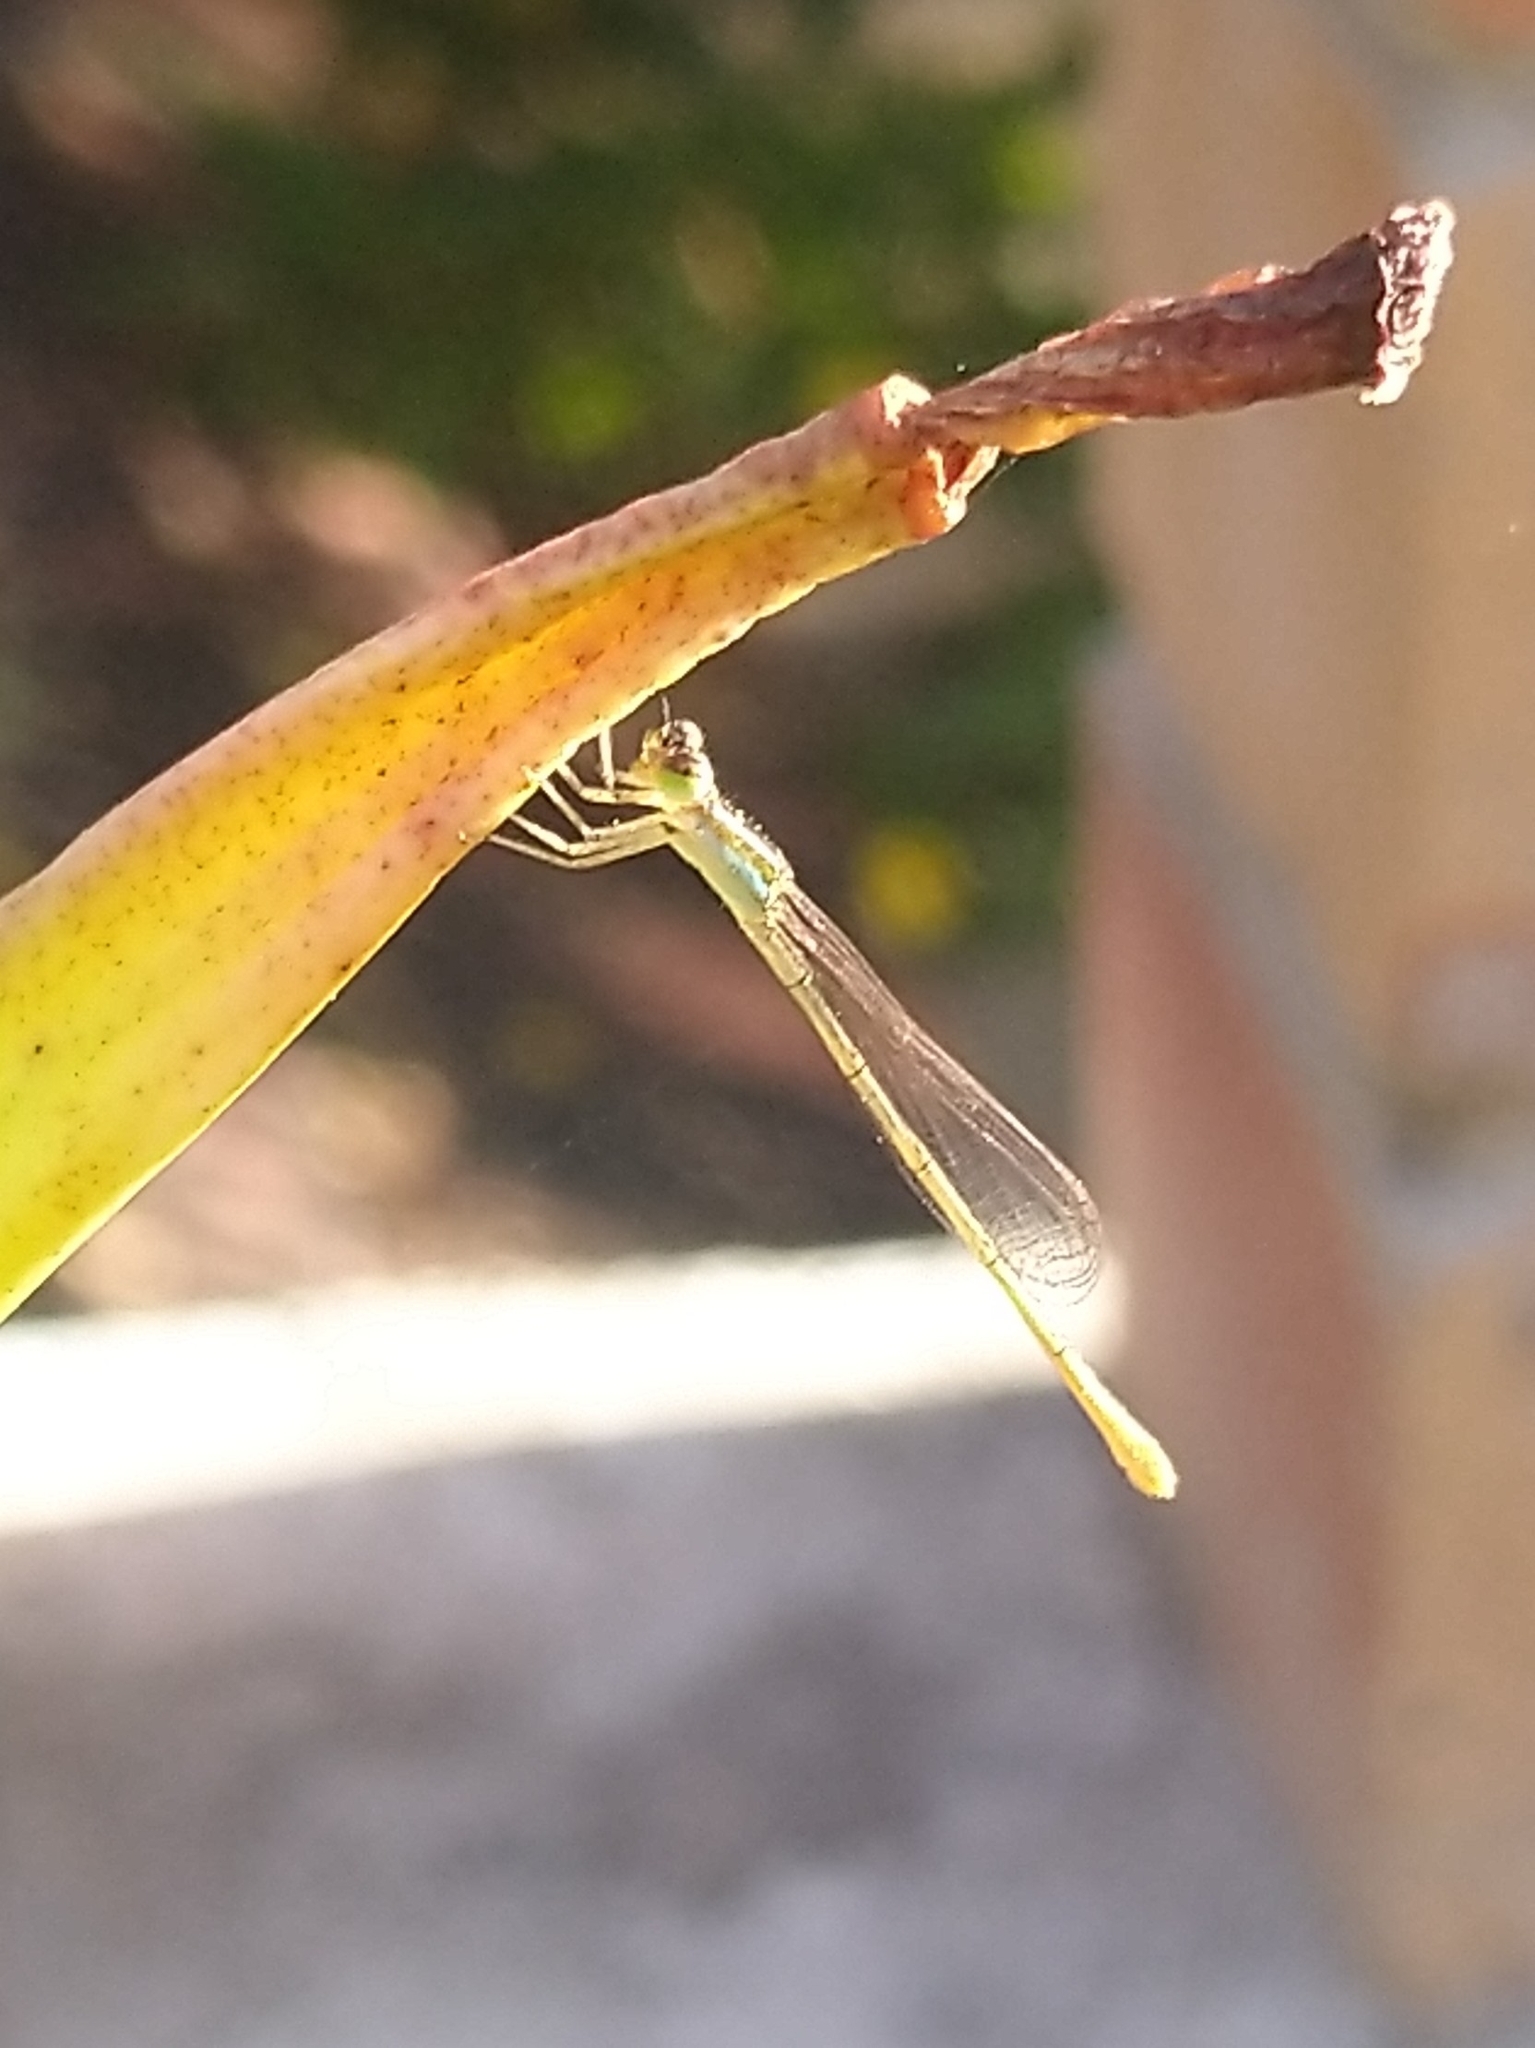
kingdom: Animalia
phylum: Arthropoda
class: Insecta
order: Odonata
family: Coenagrionidae
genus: Agriocnemis
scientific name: Agriocnemis pygmaea
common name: Pygmy wisp
